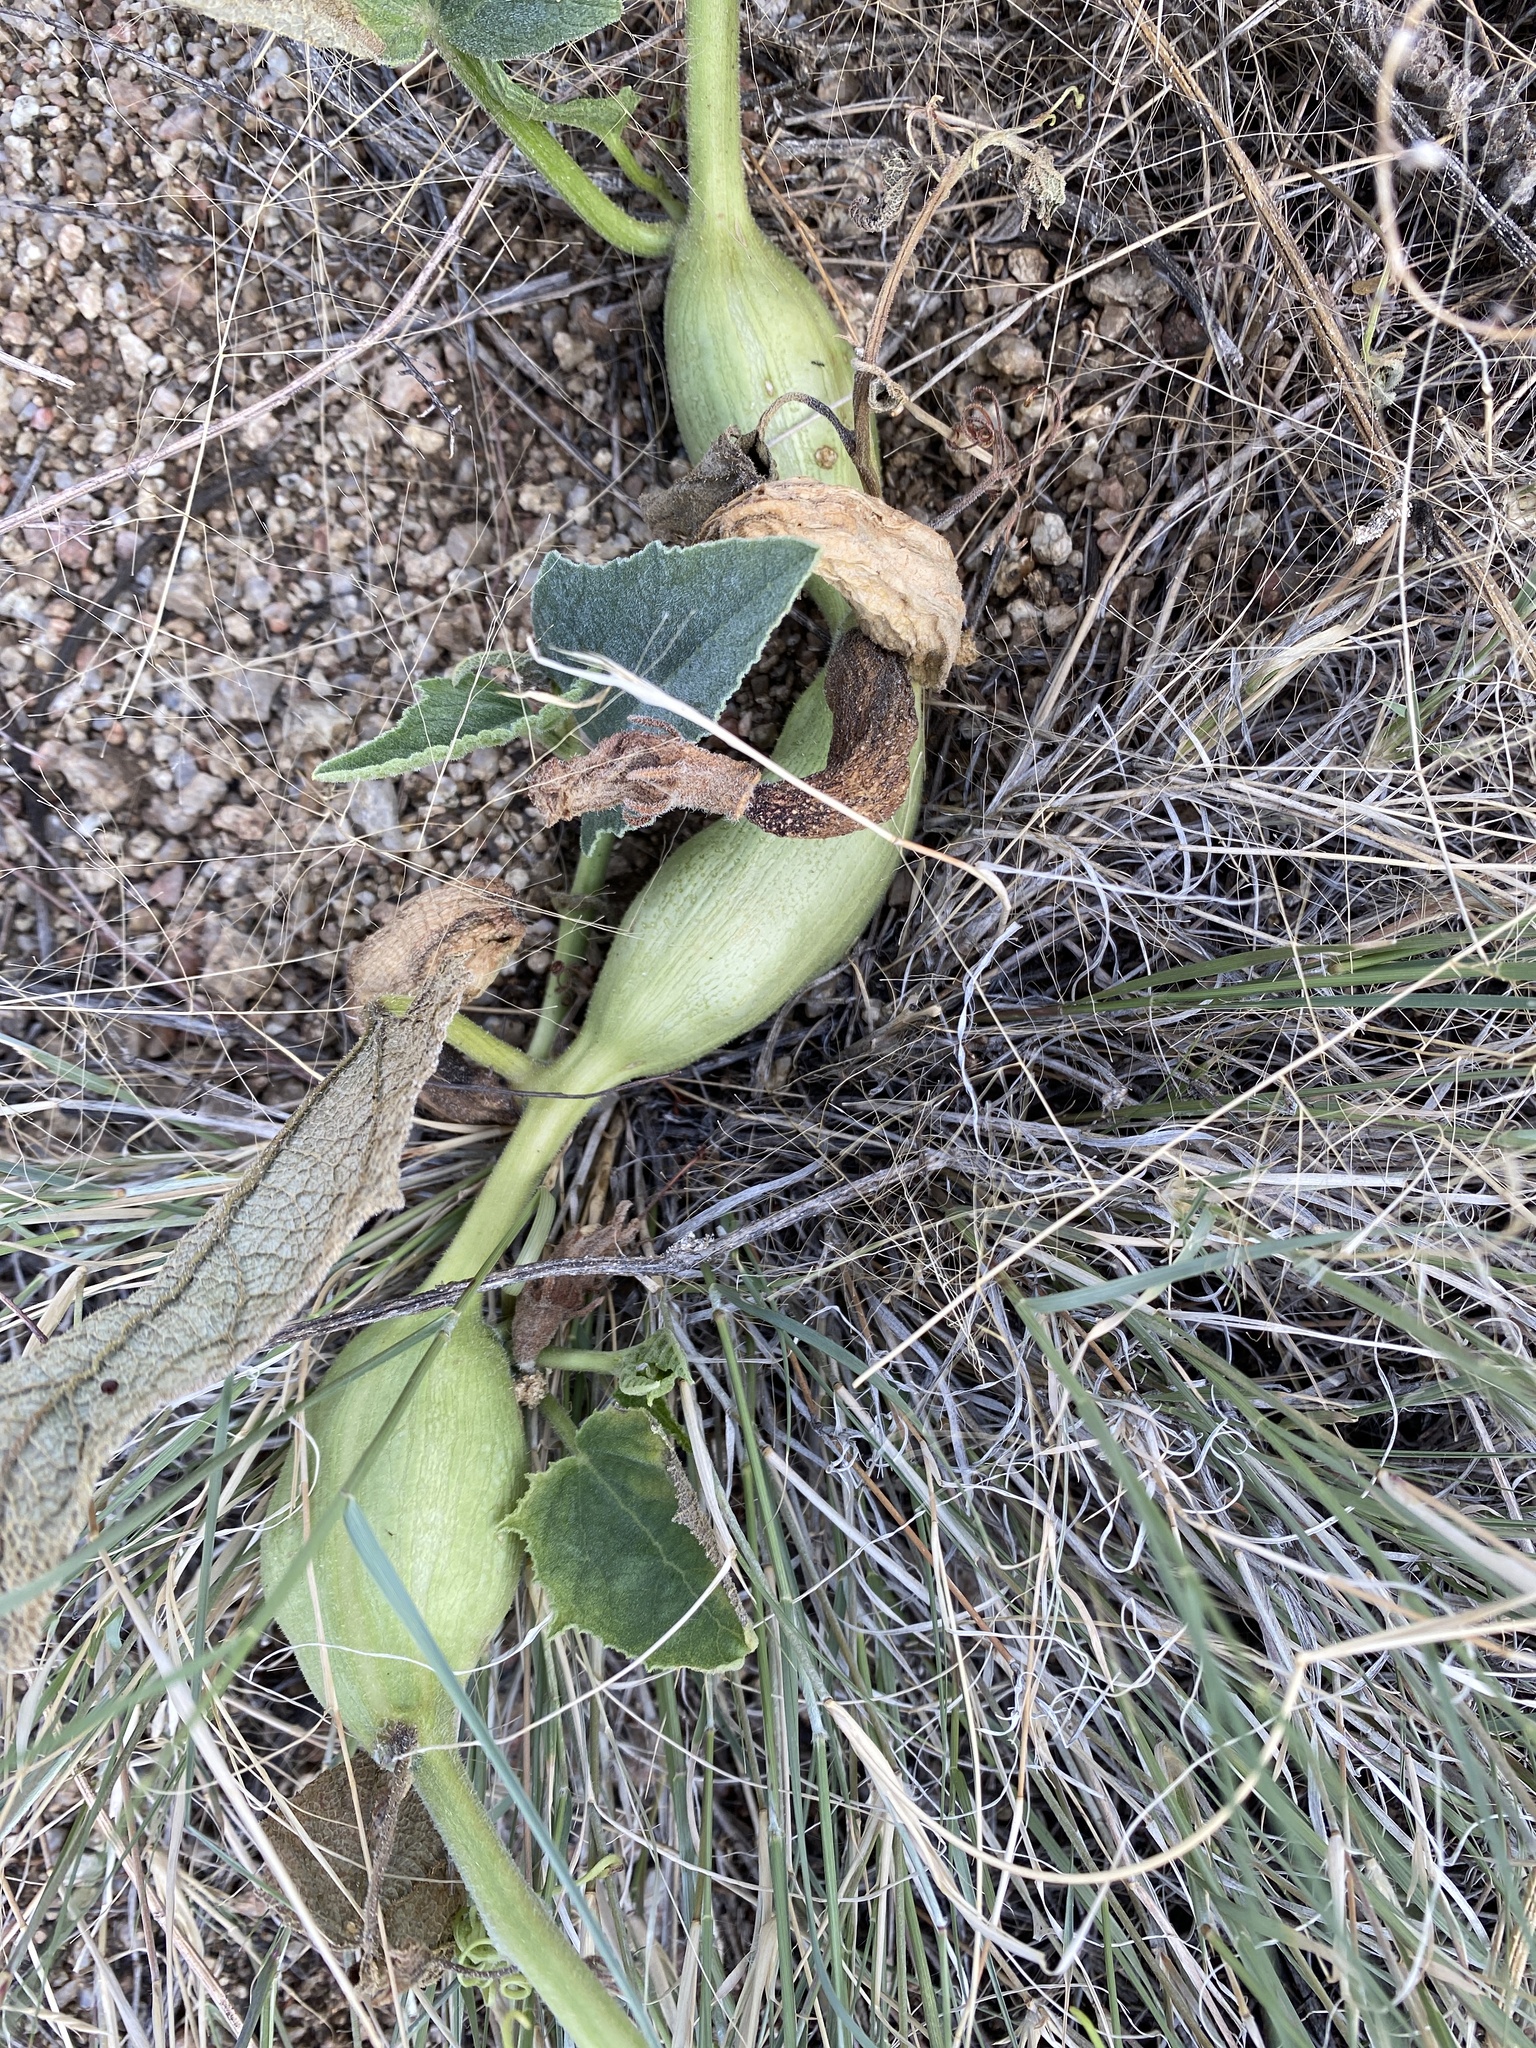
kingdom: Animalia
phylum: Arthropoda
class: Insecta
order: Lepidoptera
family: Sesiidae
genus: Eichlinia
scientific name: Eichlinia snowii
